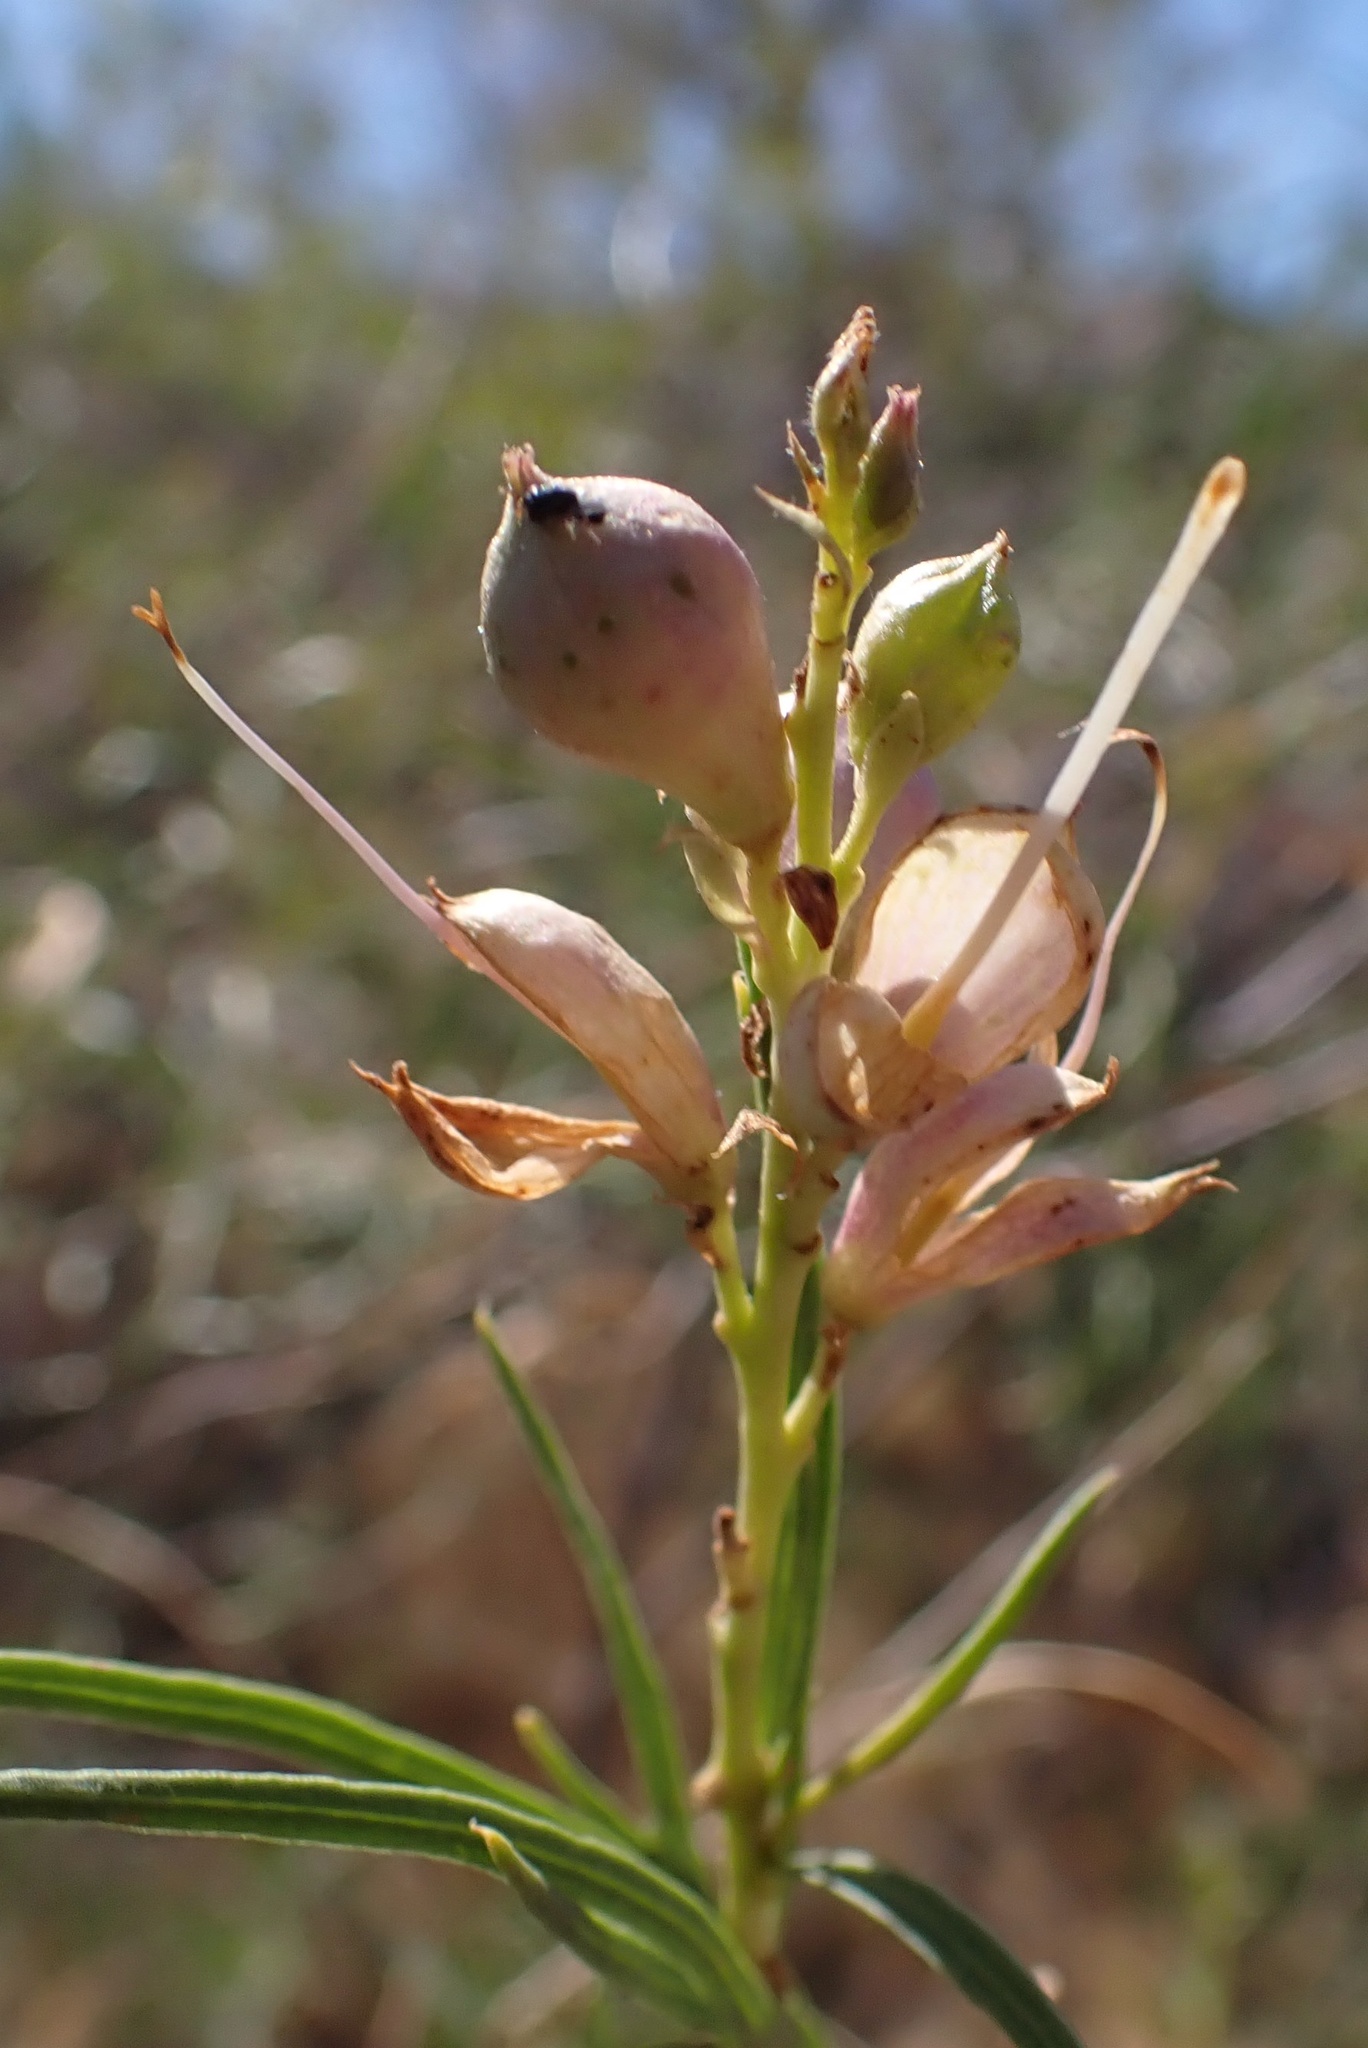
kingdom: Plantae
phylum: Tracheophyta
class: Magnoliopsida
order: Lamiales
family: Bignoniaceae
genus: Chilopsis
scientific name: Chilopsis linearis
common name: Desert-willow
